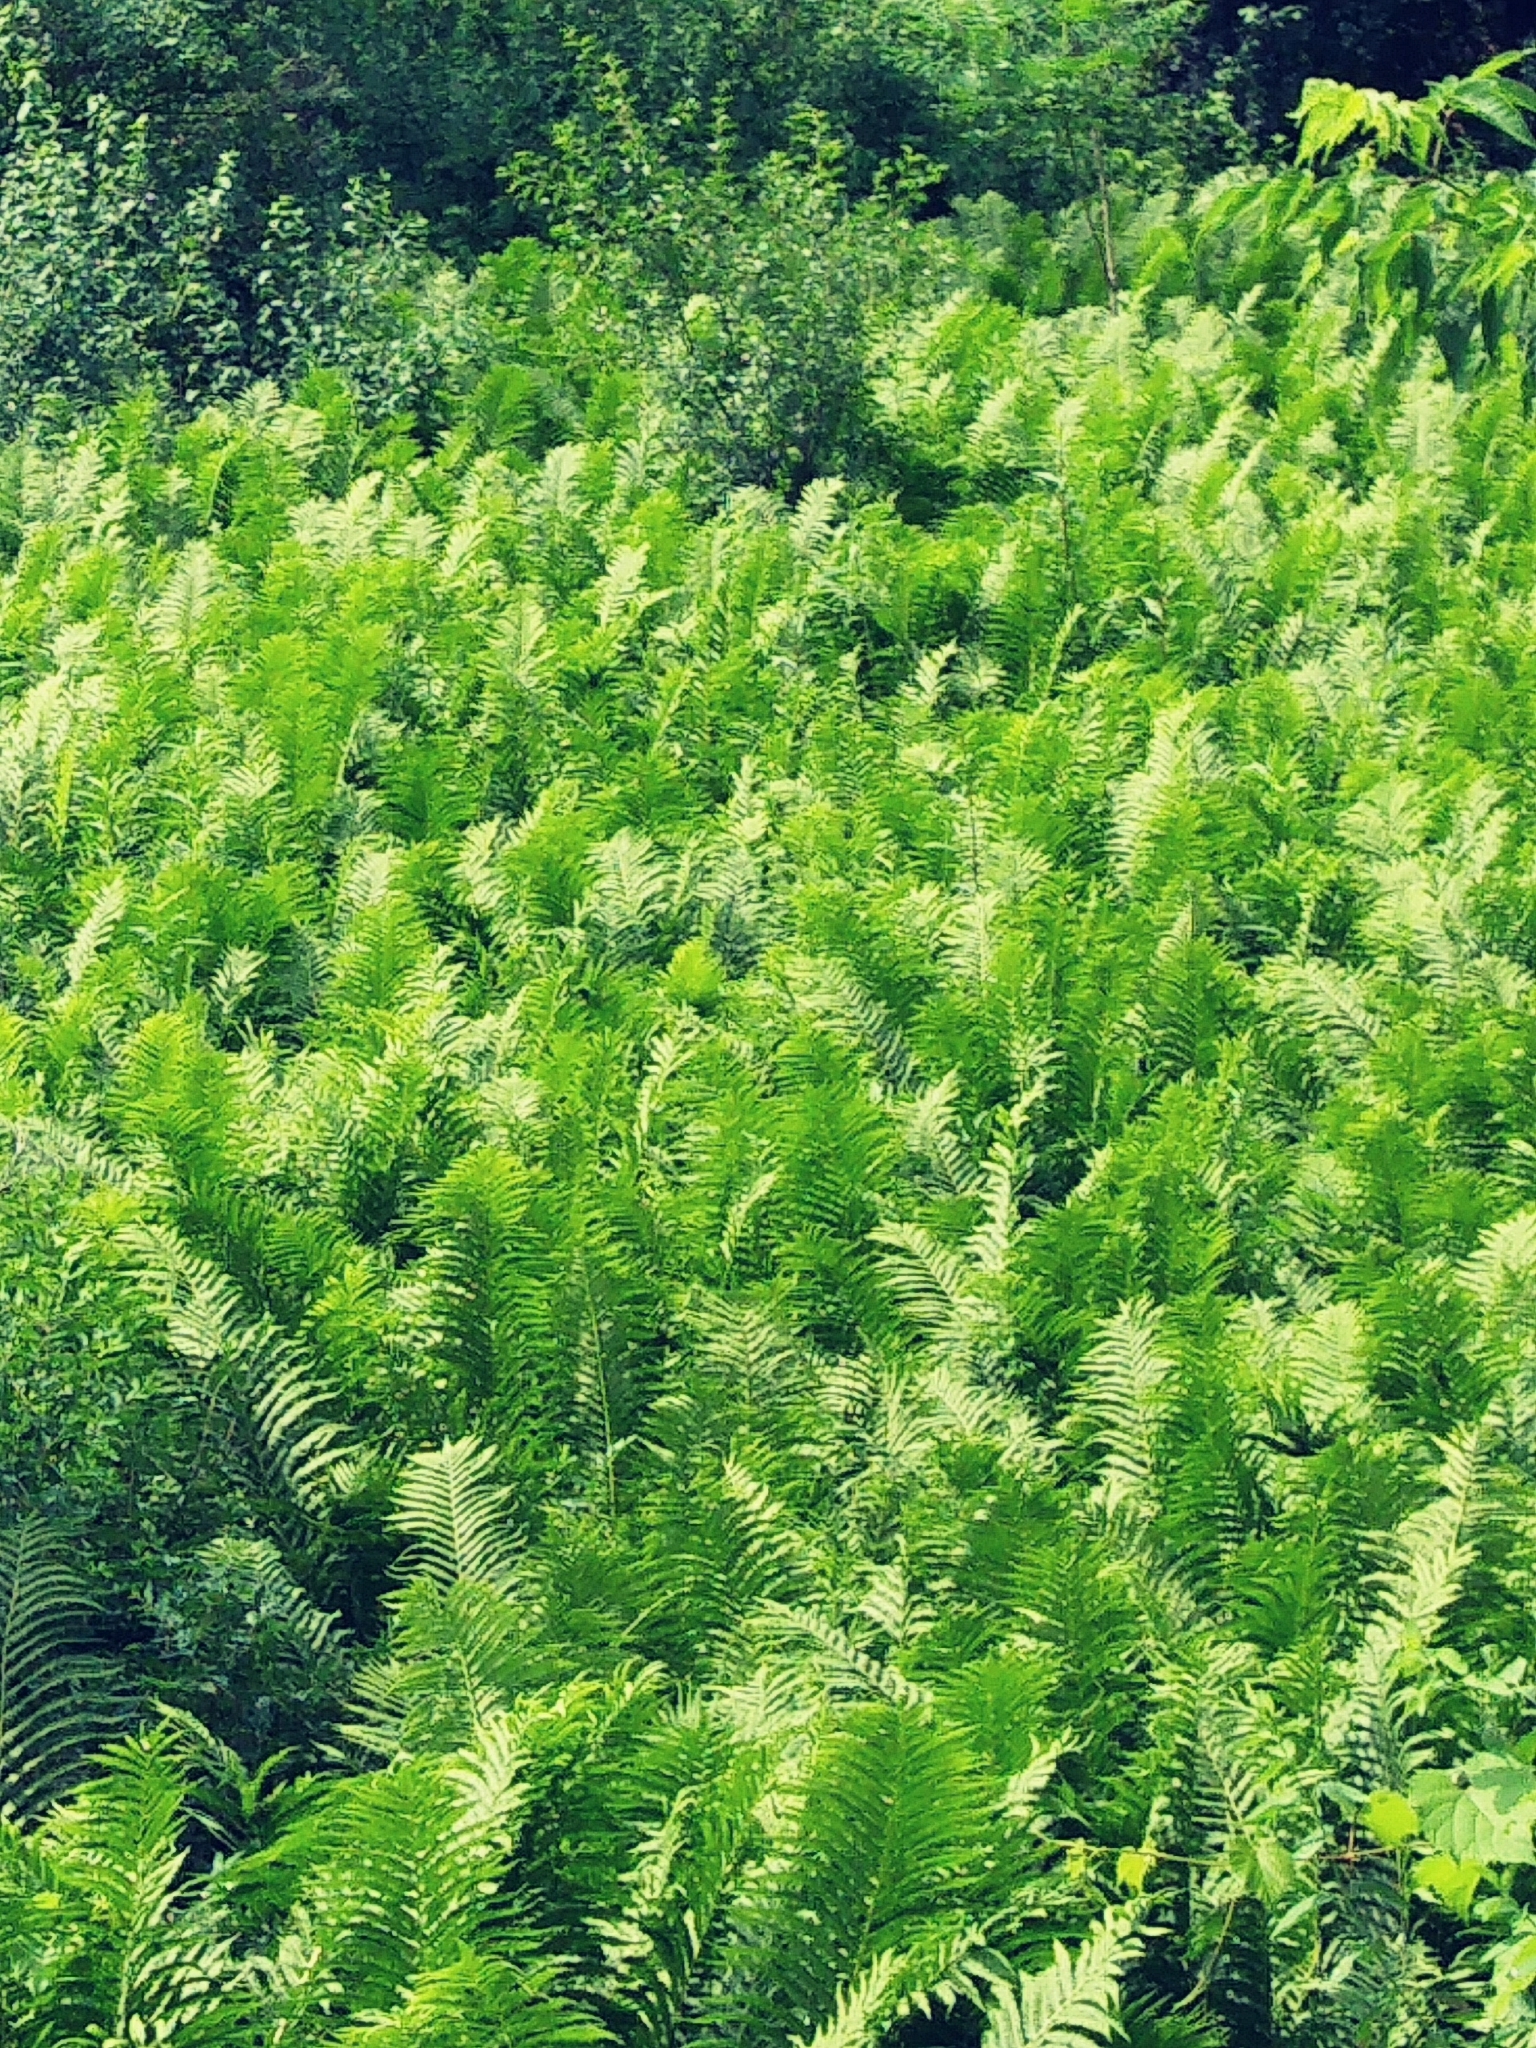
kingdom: Plantae
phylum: Tracheophyta
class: Polypodiopsida
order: Polypodiales
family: Onocleaceae
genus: Matteuccia
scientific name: Matteuccia struthiopteris
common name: Ostrich fern
